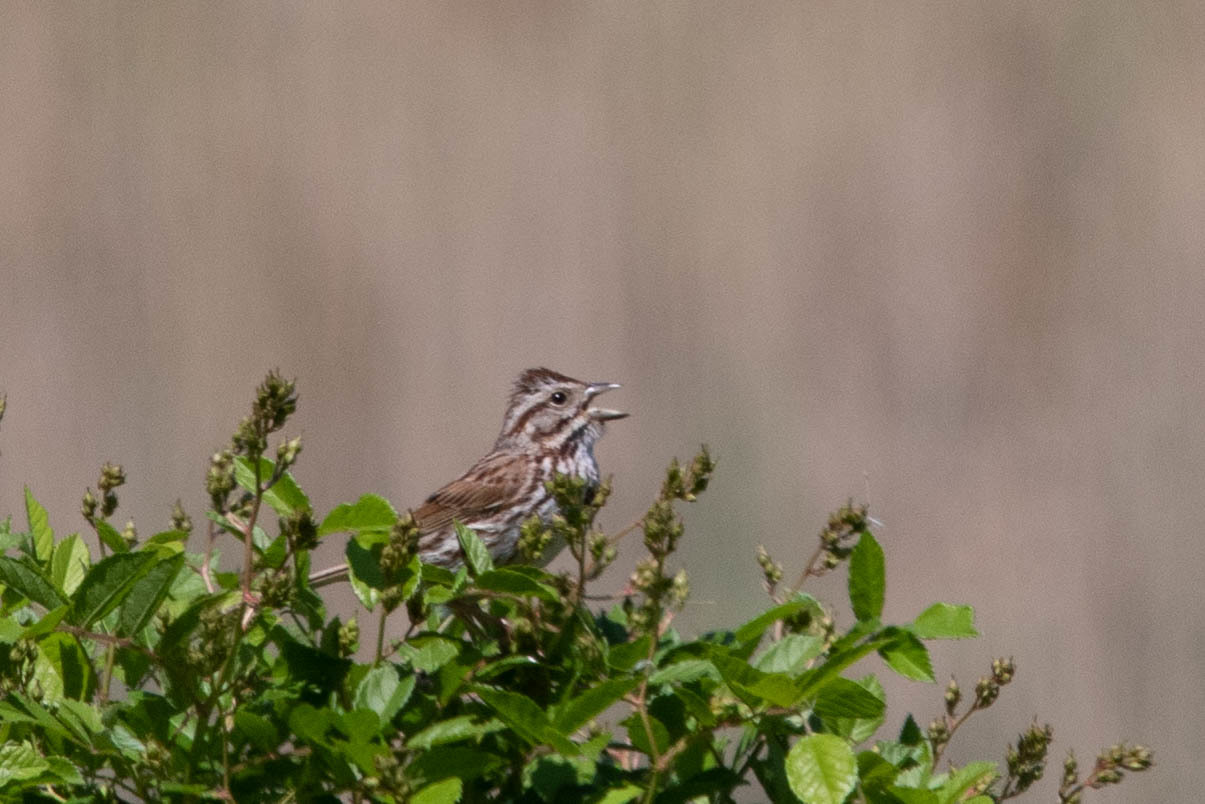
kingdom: Animalia
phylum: Chordata
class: Aves
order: Passeriformes
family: Passerellidae
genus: Melospiza
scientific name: Melospiza melodia
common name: Song sparrow
